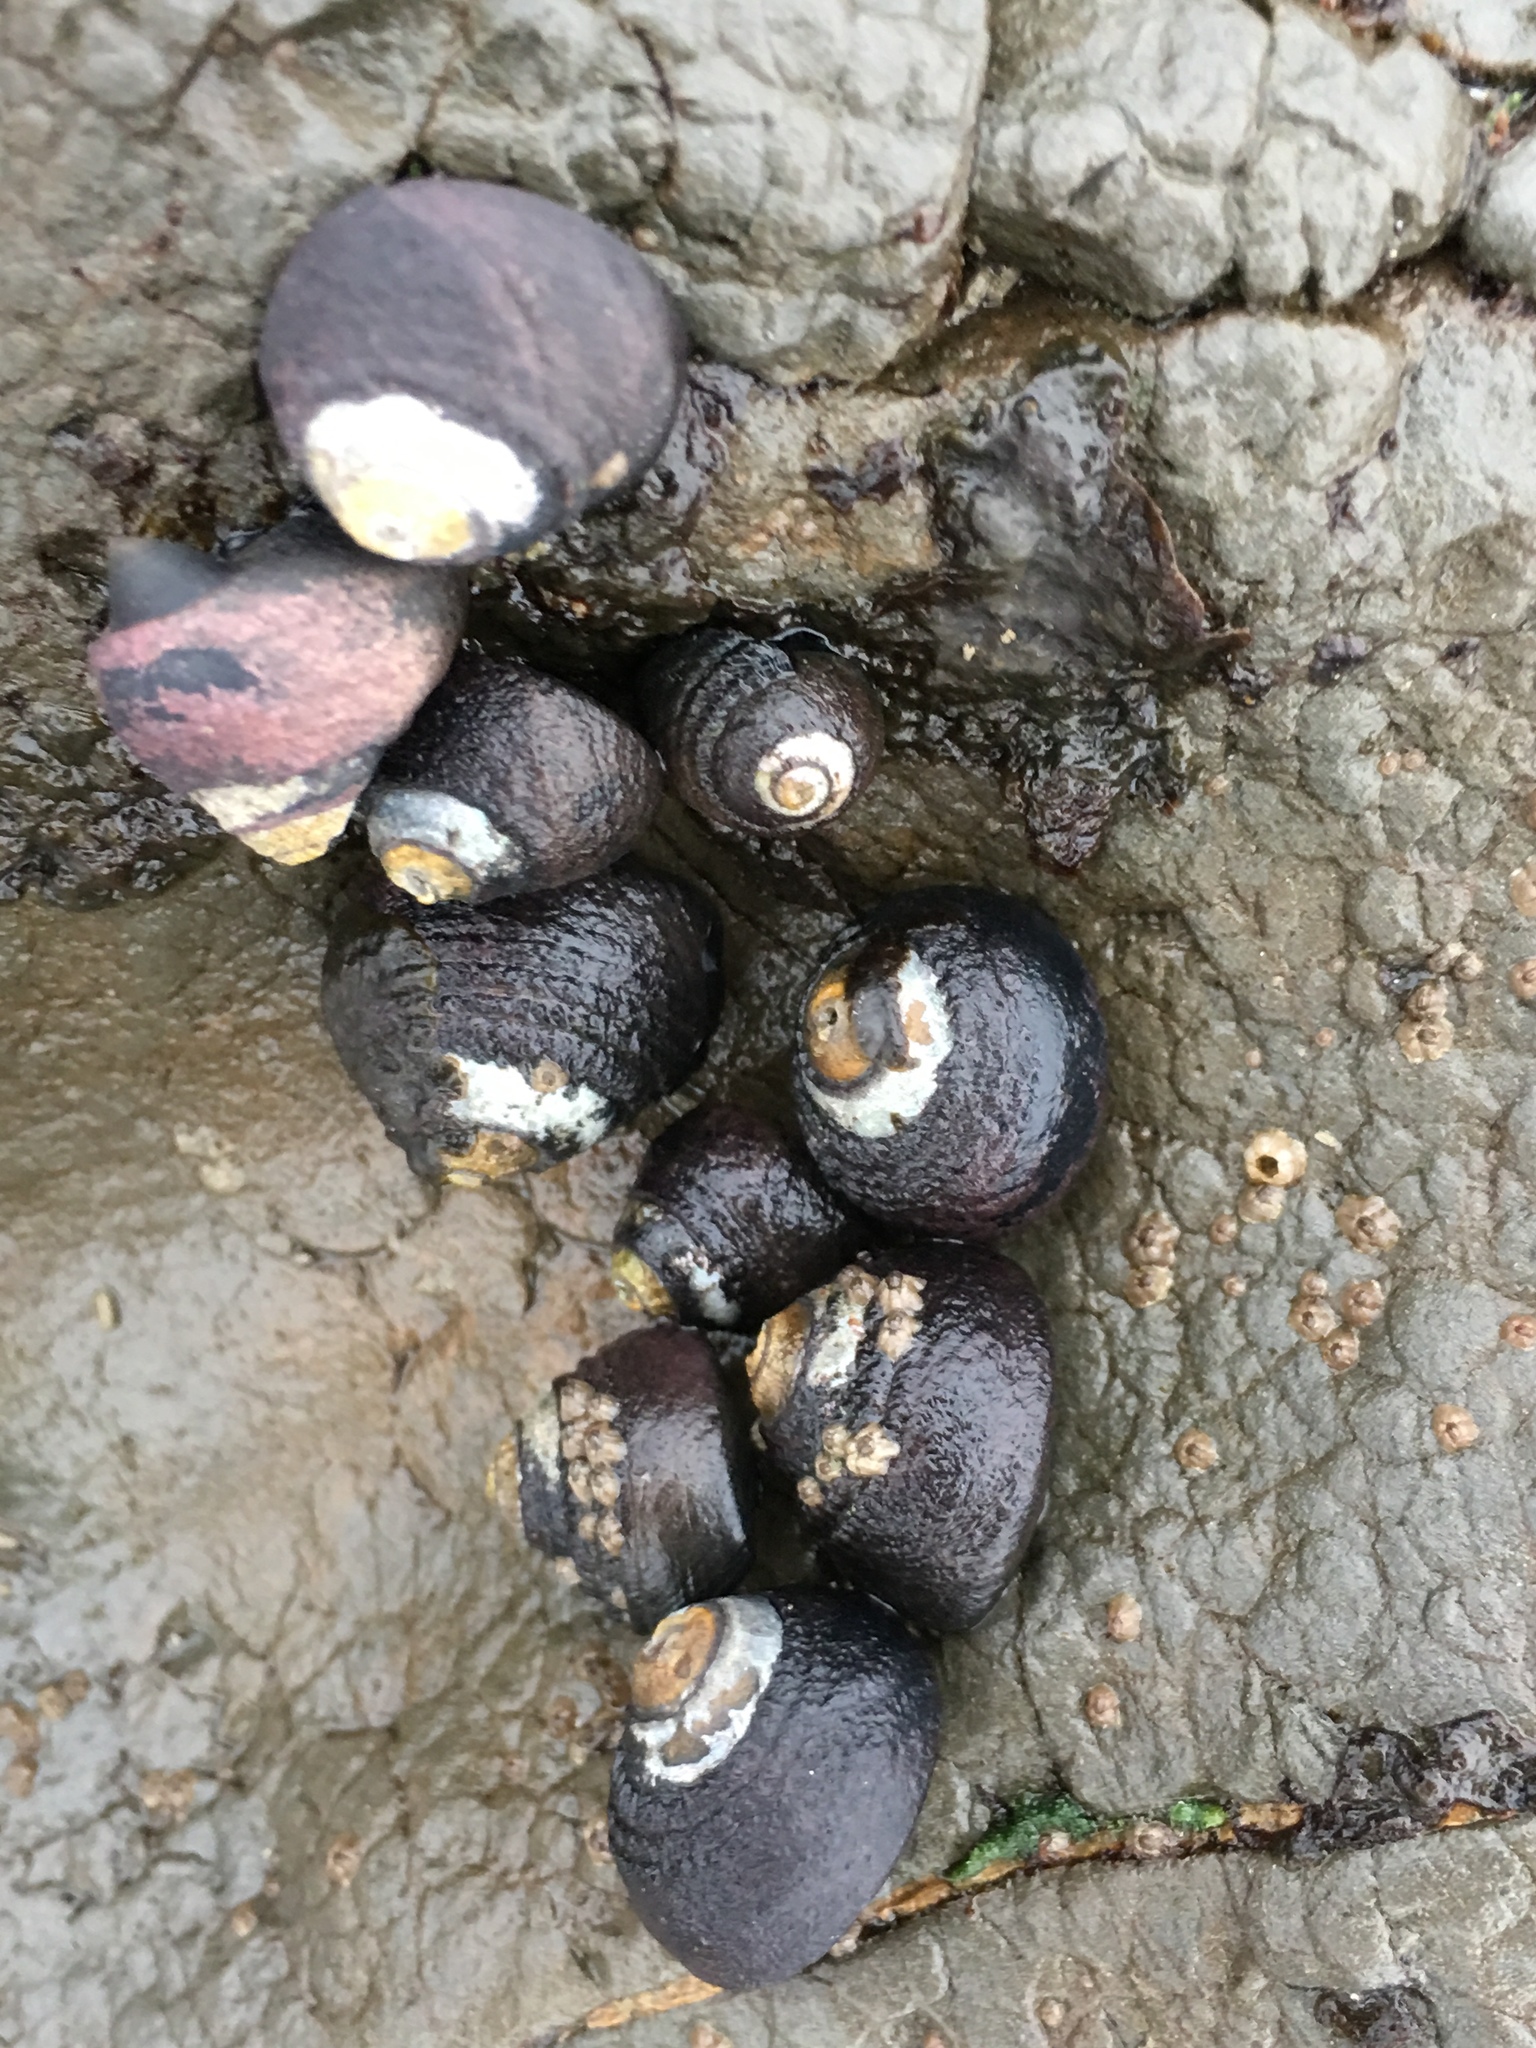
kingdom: Animalia
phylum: Mollusca
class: Gastropoda
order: Trochida
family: Tegulidae
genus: Tegula
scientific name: Tegula funebralis
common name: Black tegula
